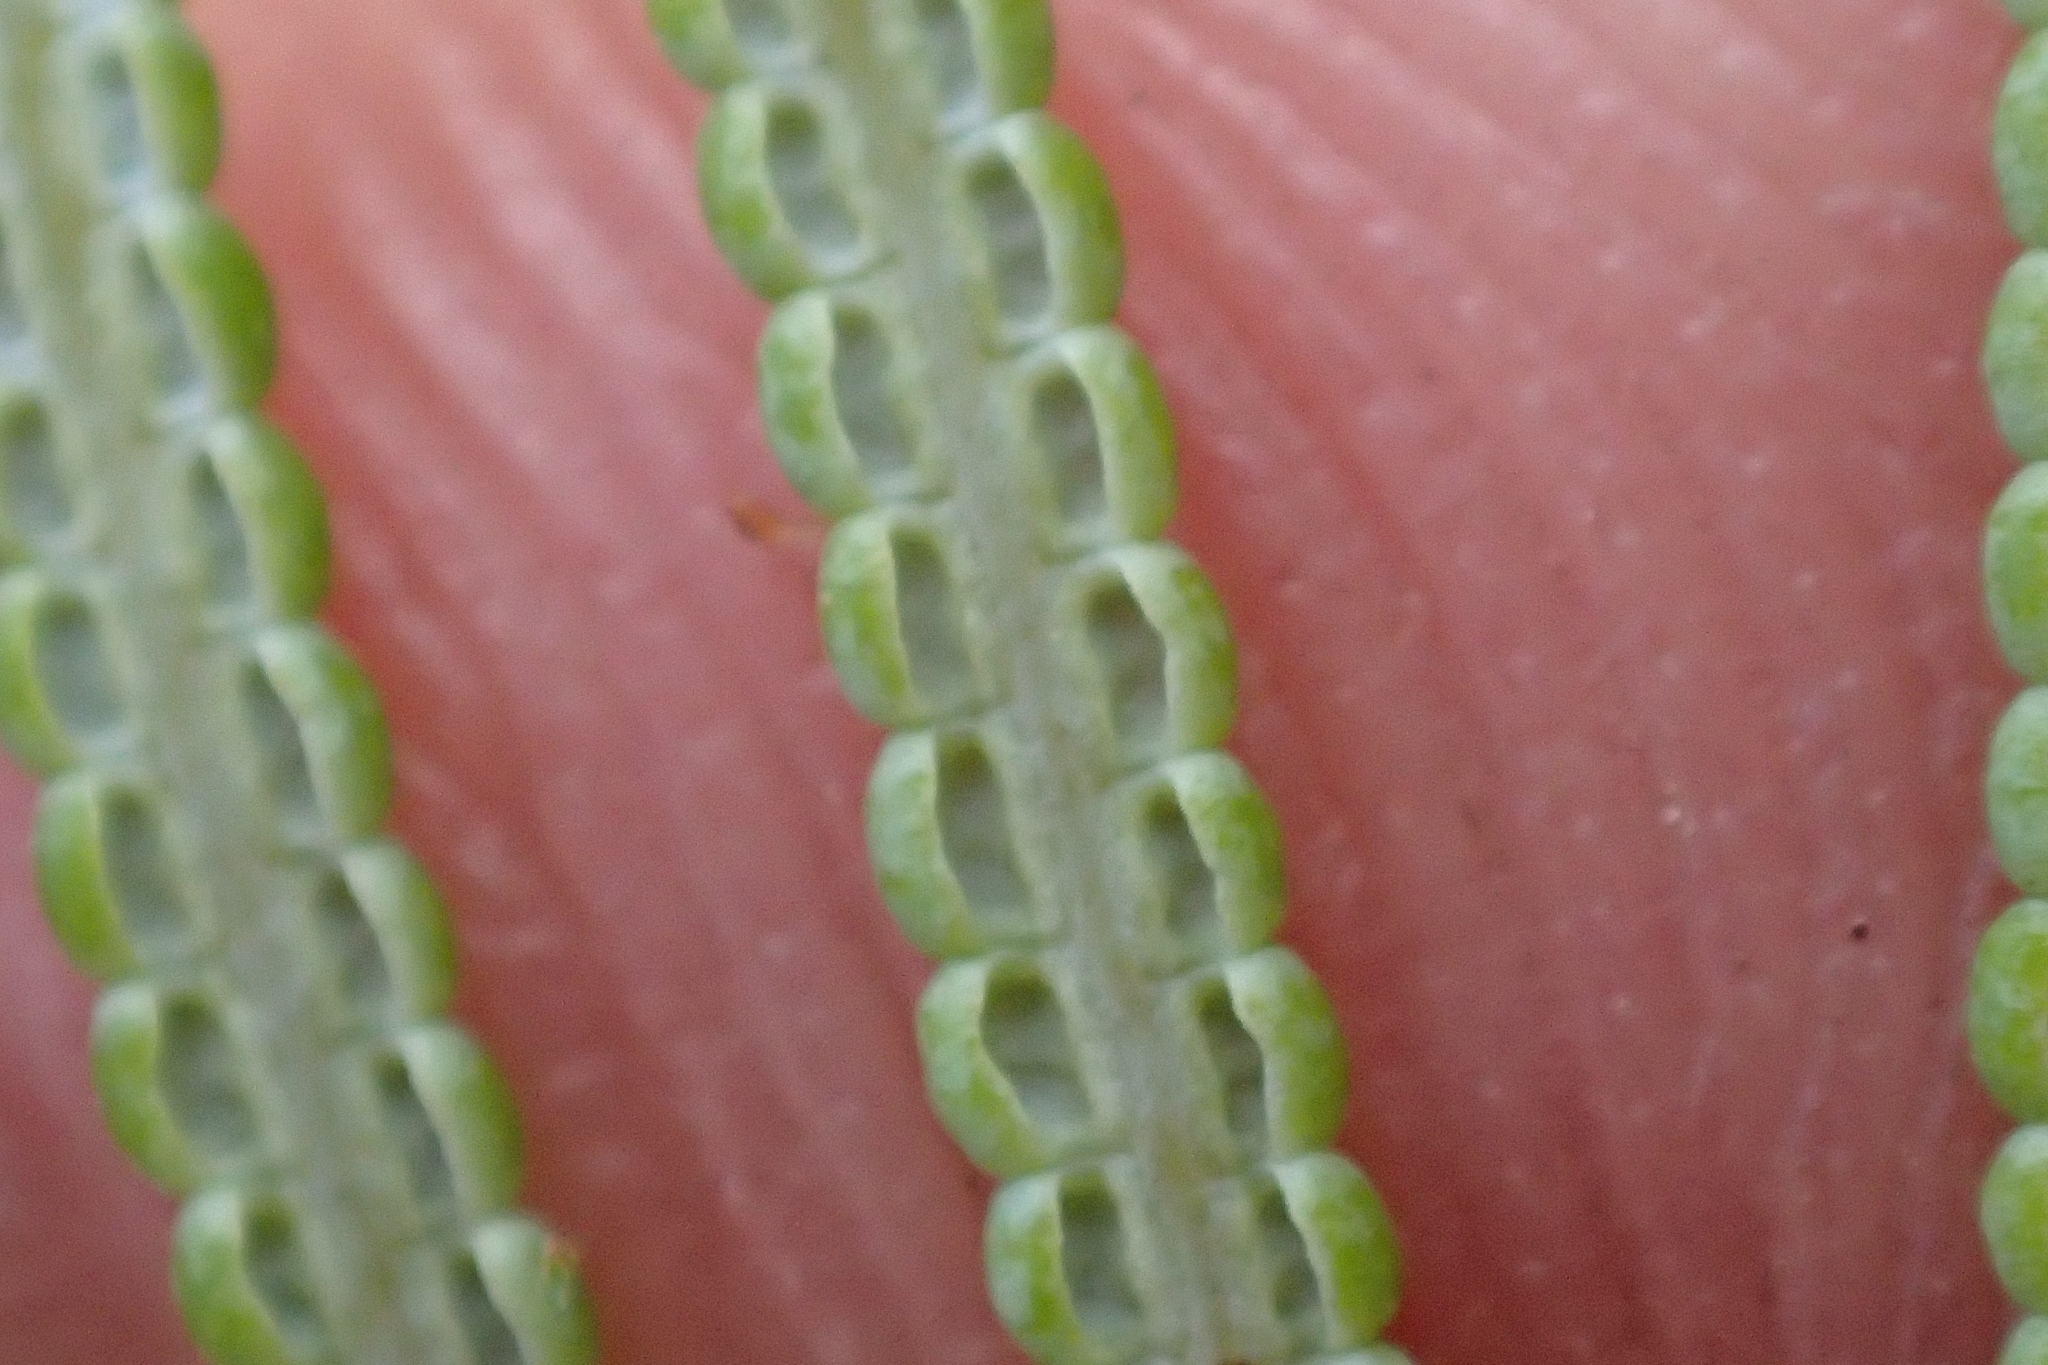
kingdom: Plantae
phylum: Tracheophyta
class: Polypodiopsida
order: Gleicheniales
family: Gleicheniaceae
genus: Gleichenia
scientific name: Gleichenia dicarpa
